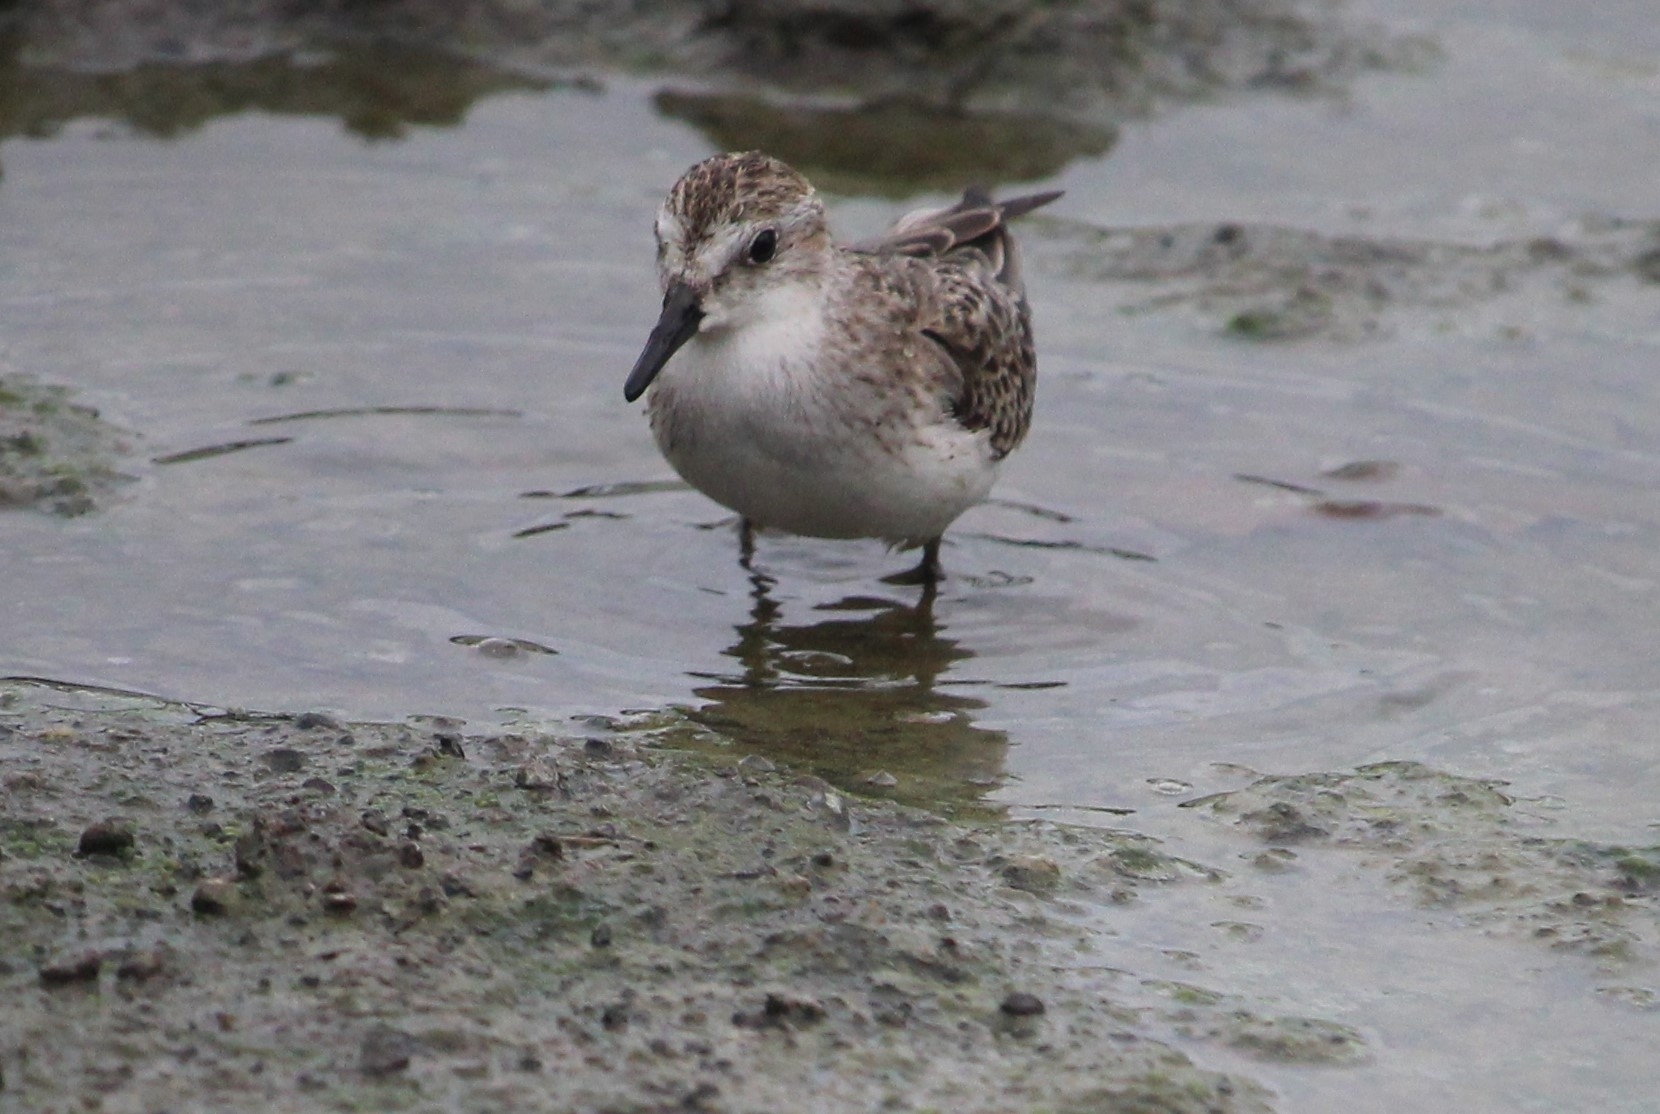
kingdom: Animalia
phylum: Chordata
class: Aves
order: Charadriiformes
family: Scolopacidae
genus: Calidris
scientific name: Calidris pusilla
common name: Semipalmated sandpiper
